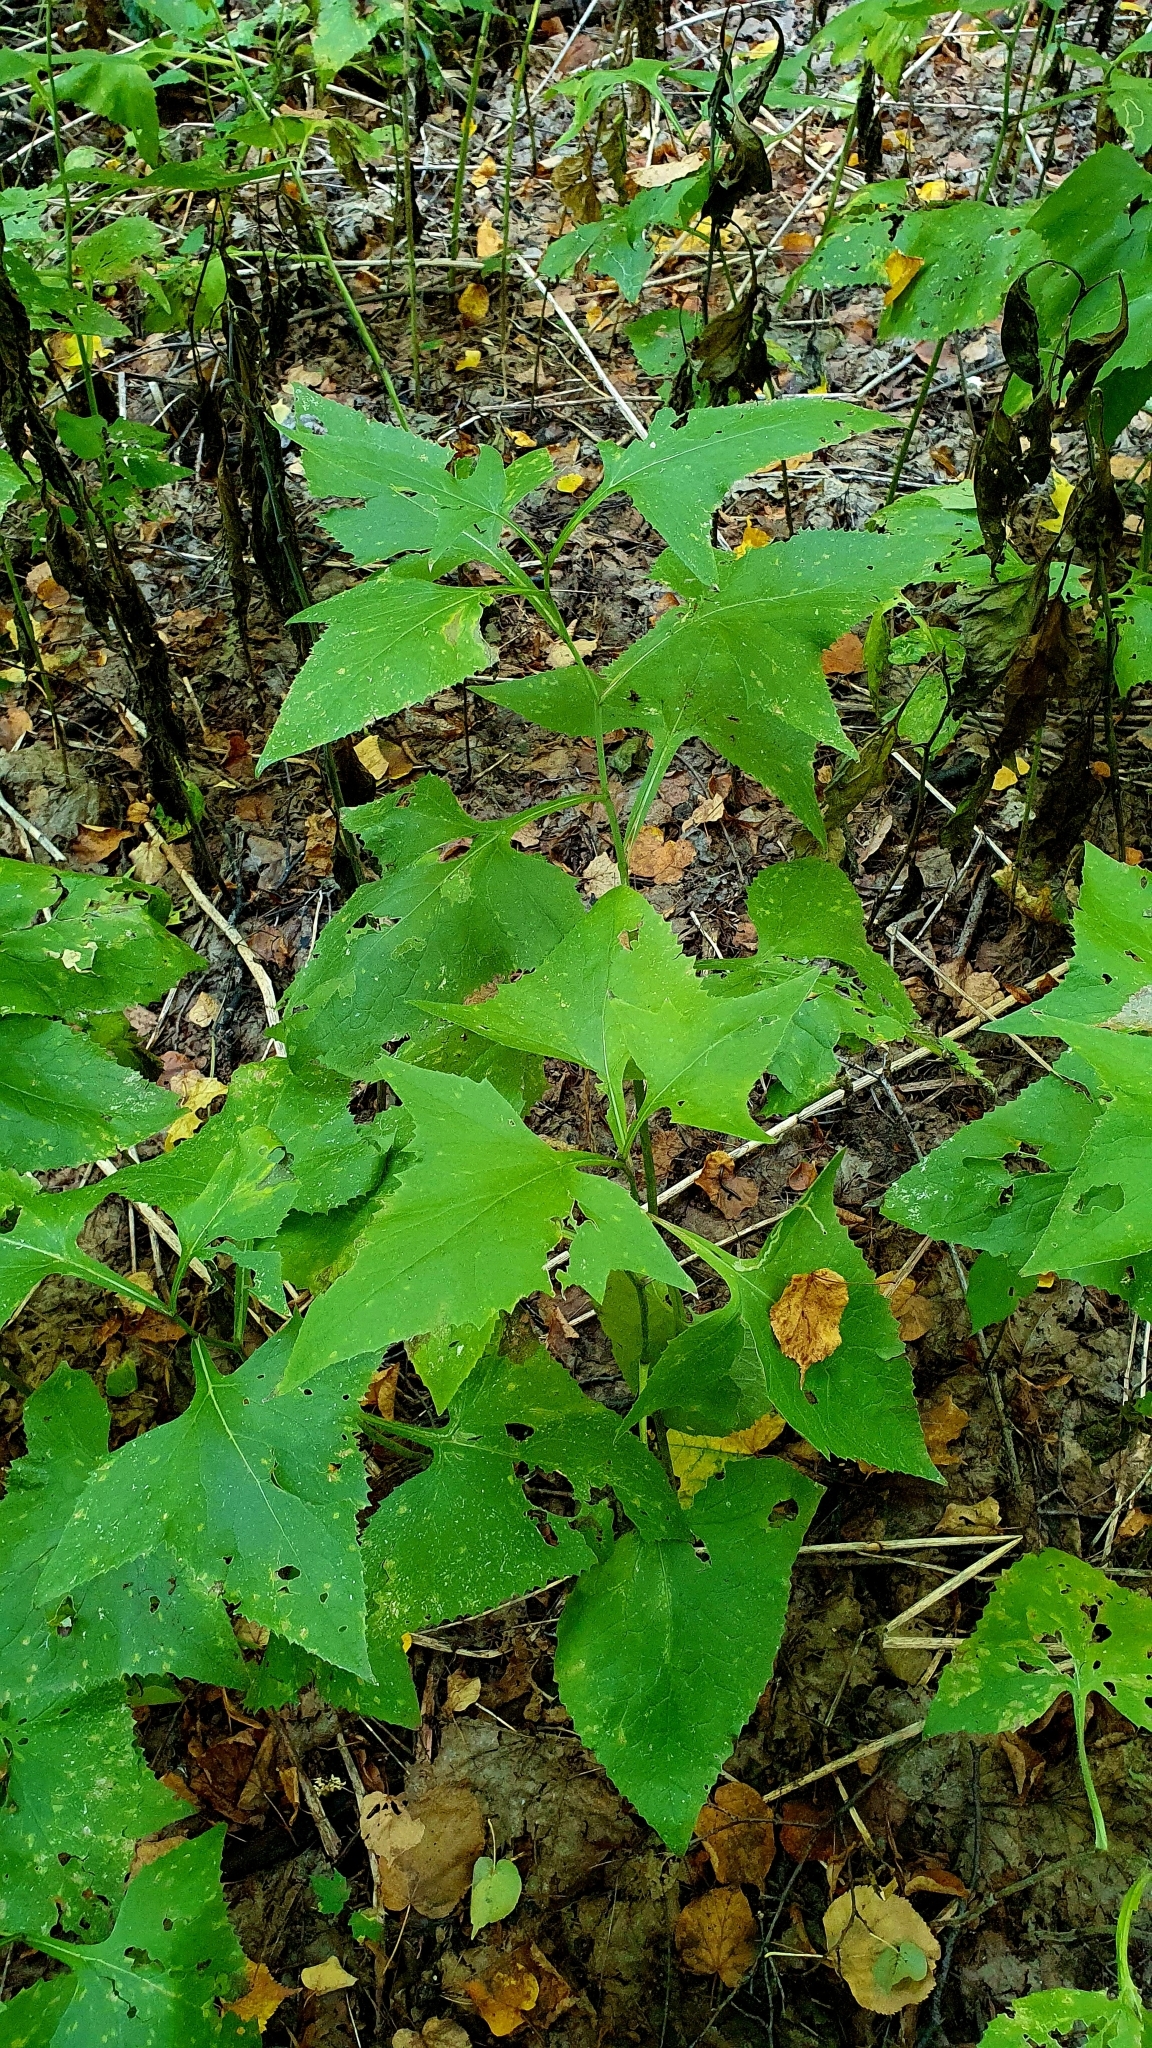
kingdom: Plantae
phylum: Tracheophyta
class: Magnoliopsida
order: Asterales
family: Asteraceae
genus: Parasenecio
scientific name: Parasenecio hastatus
